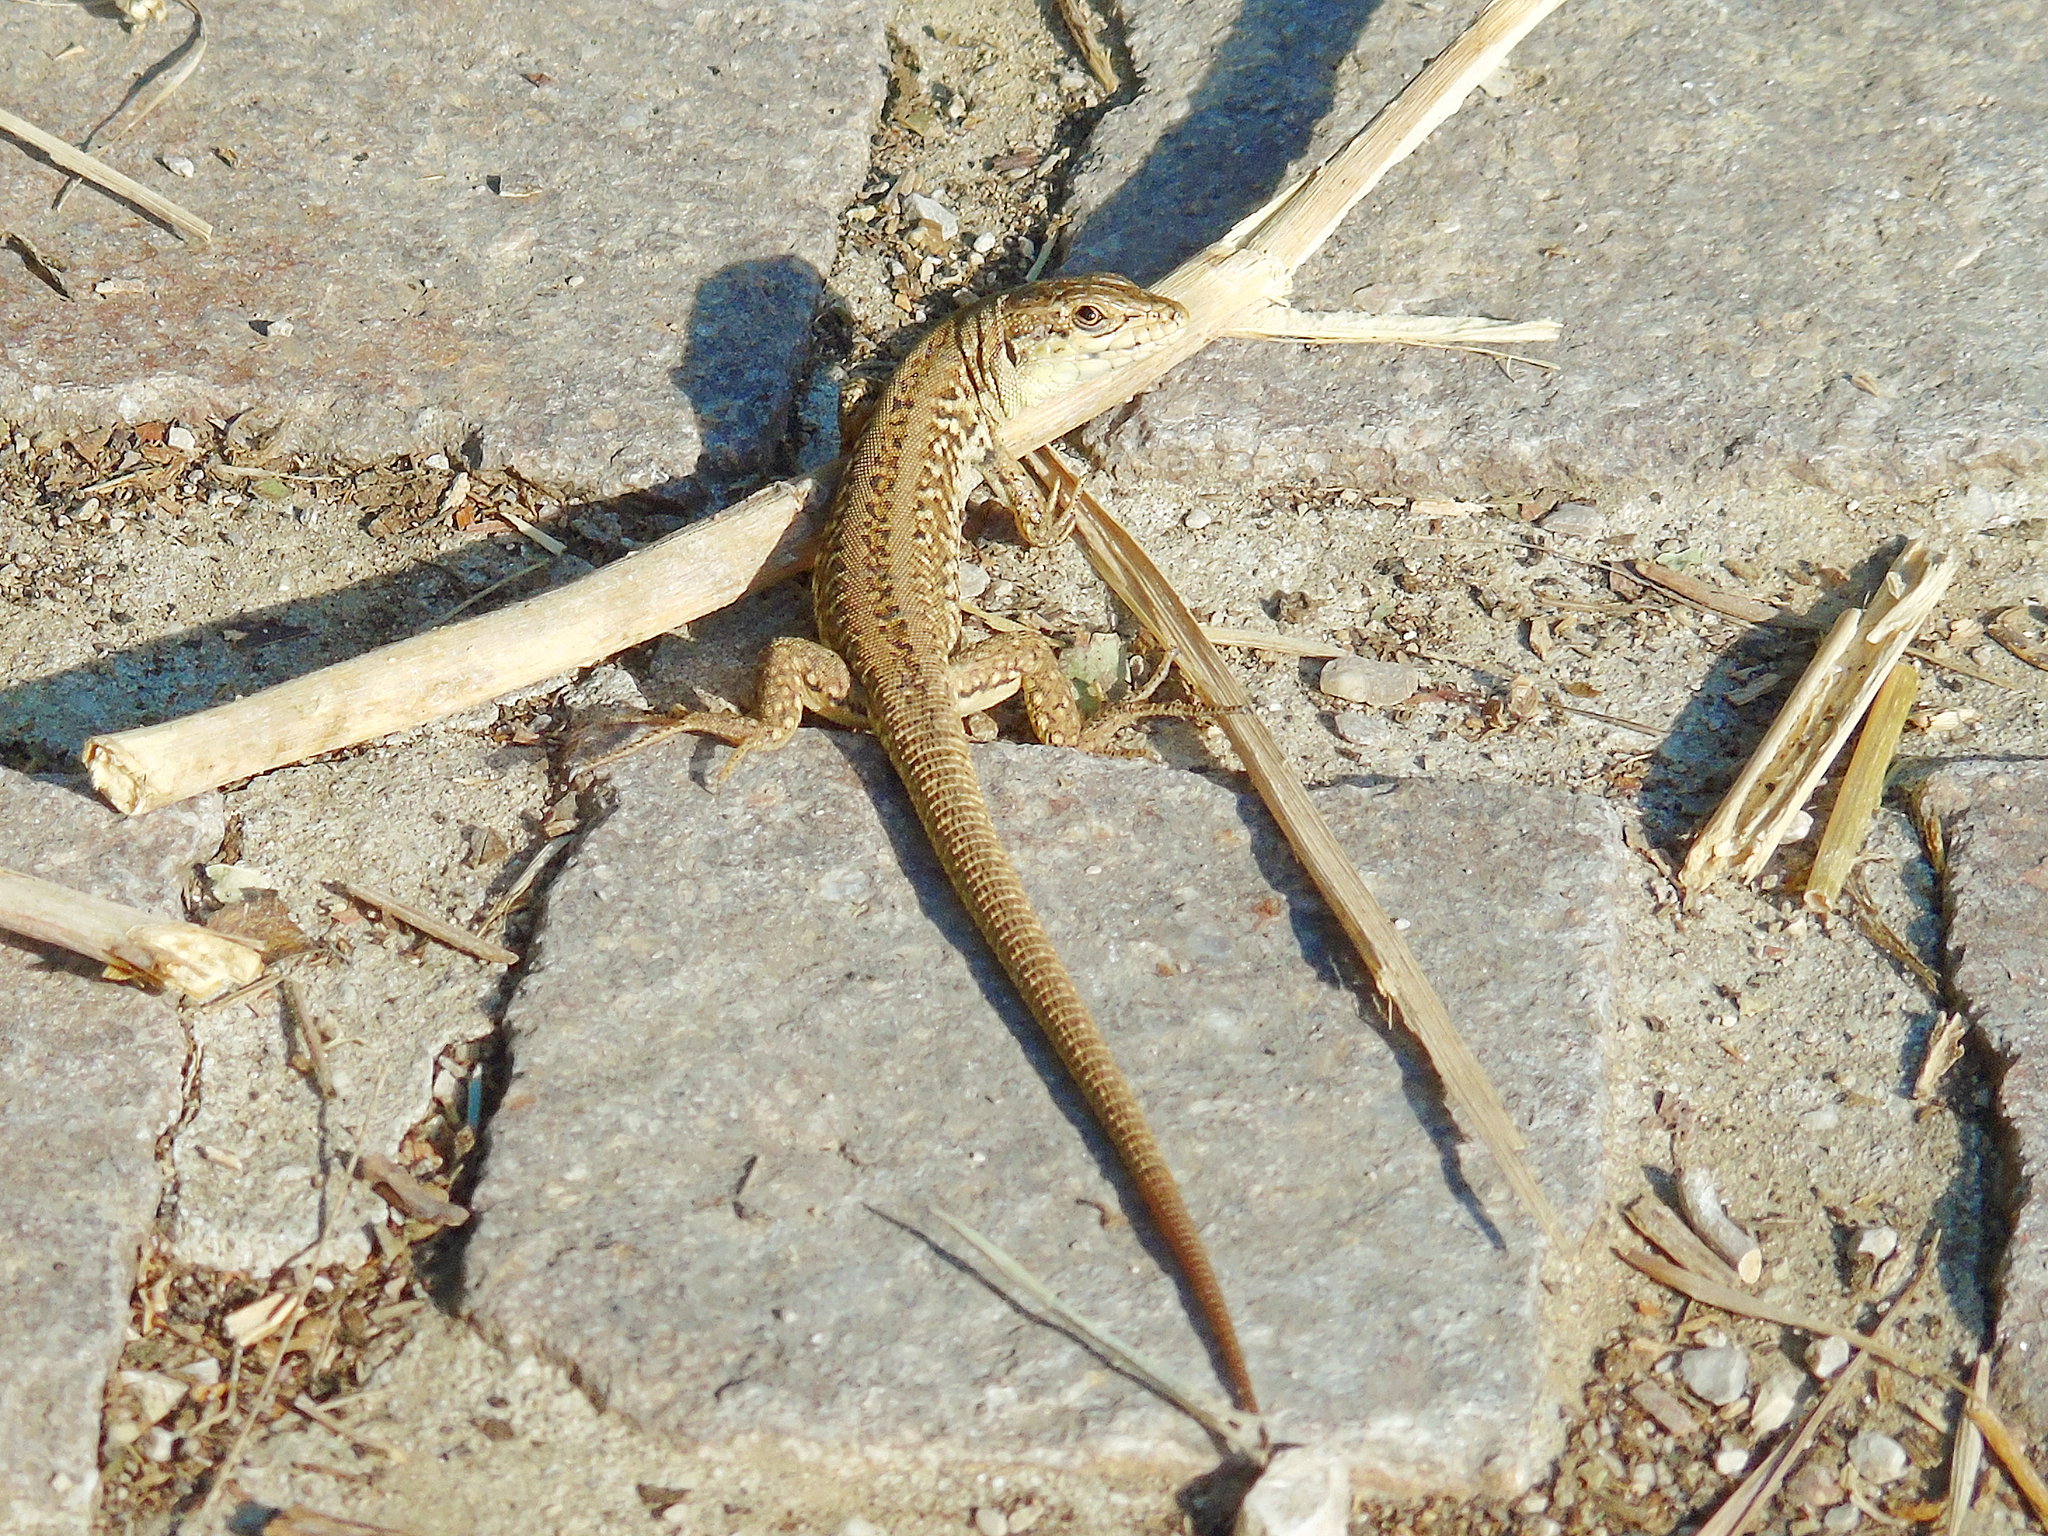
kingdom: Animalia
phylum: Chordata
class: Squamata
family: Lacertidae
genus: Podarcis
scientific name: Podarcis siculus
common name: Italian wall lizard
